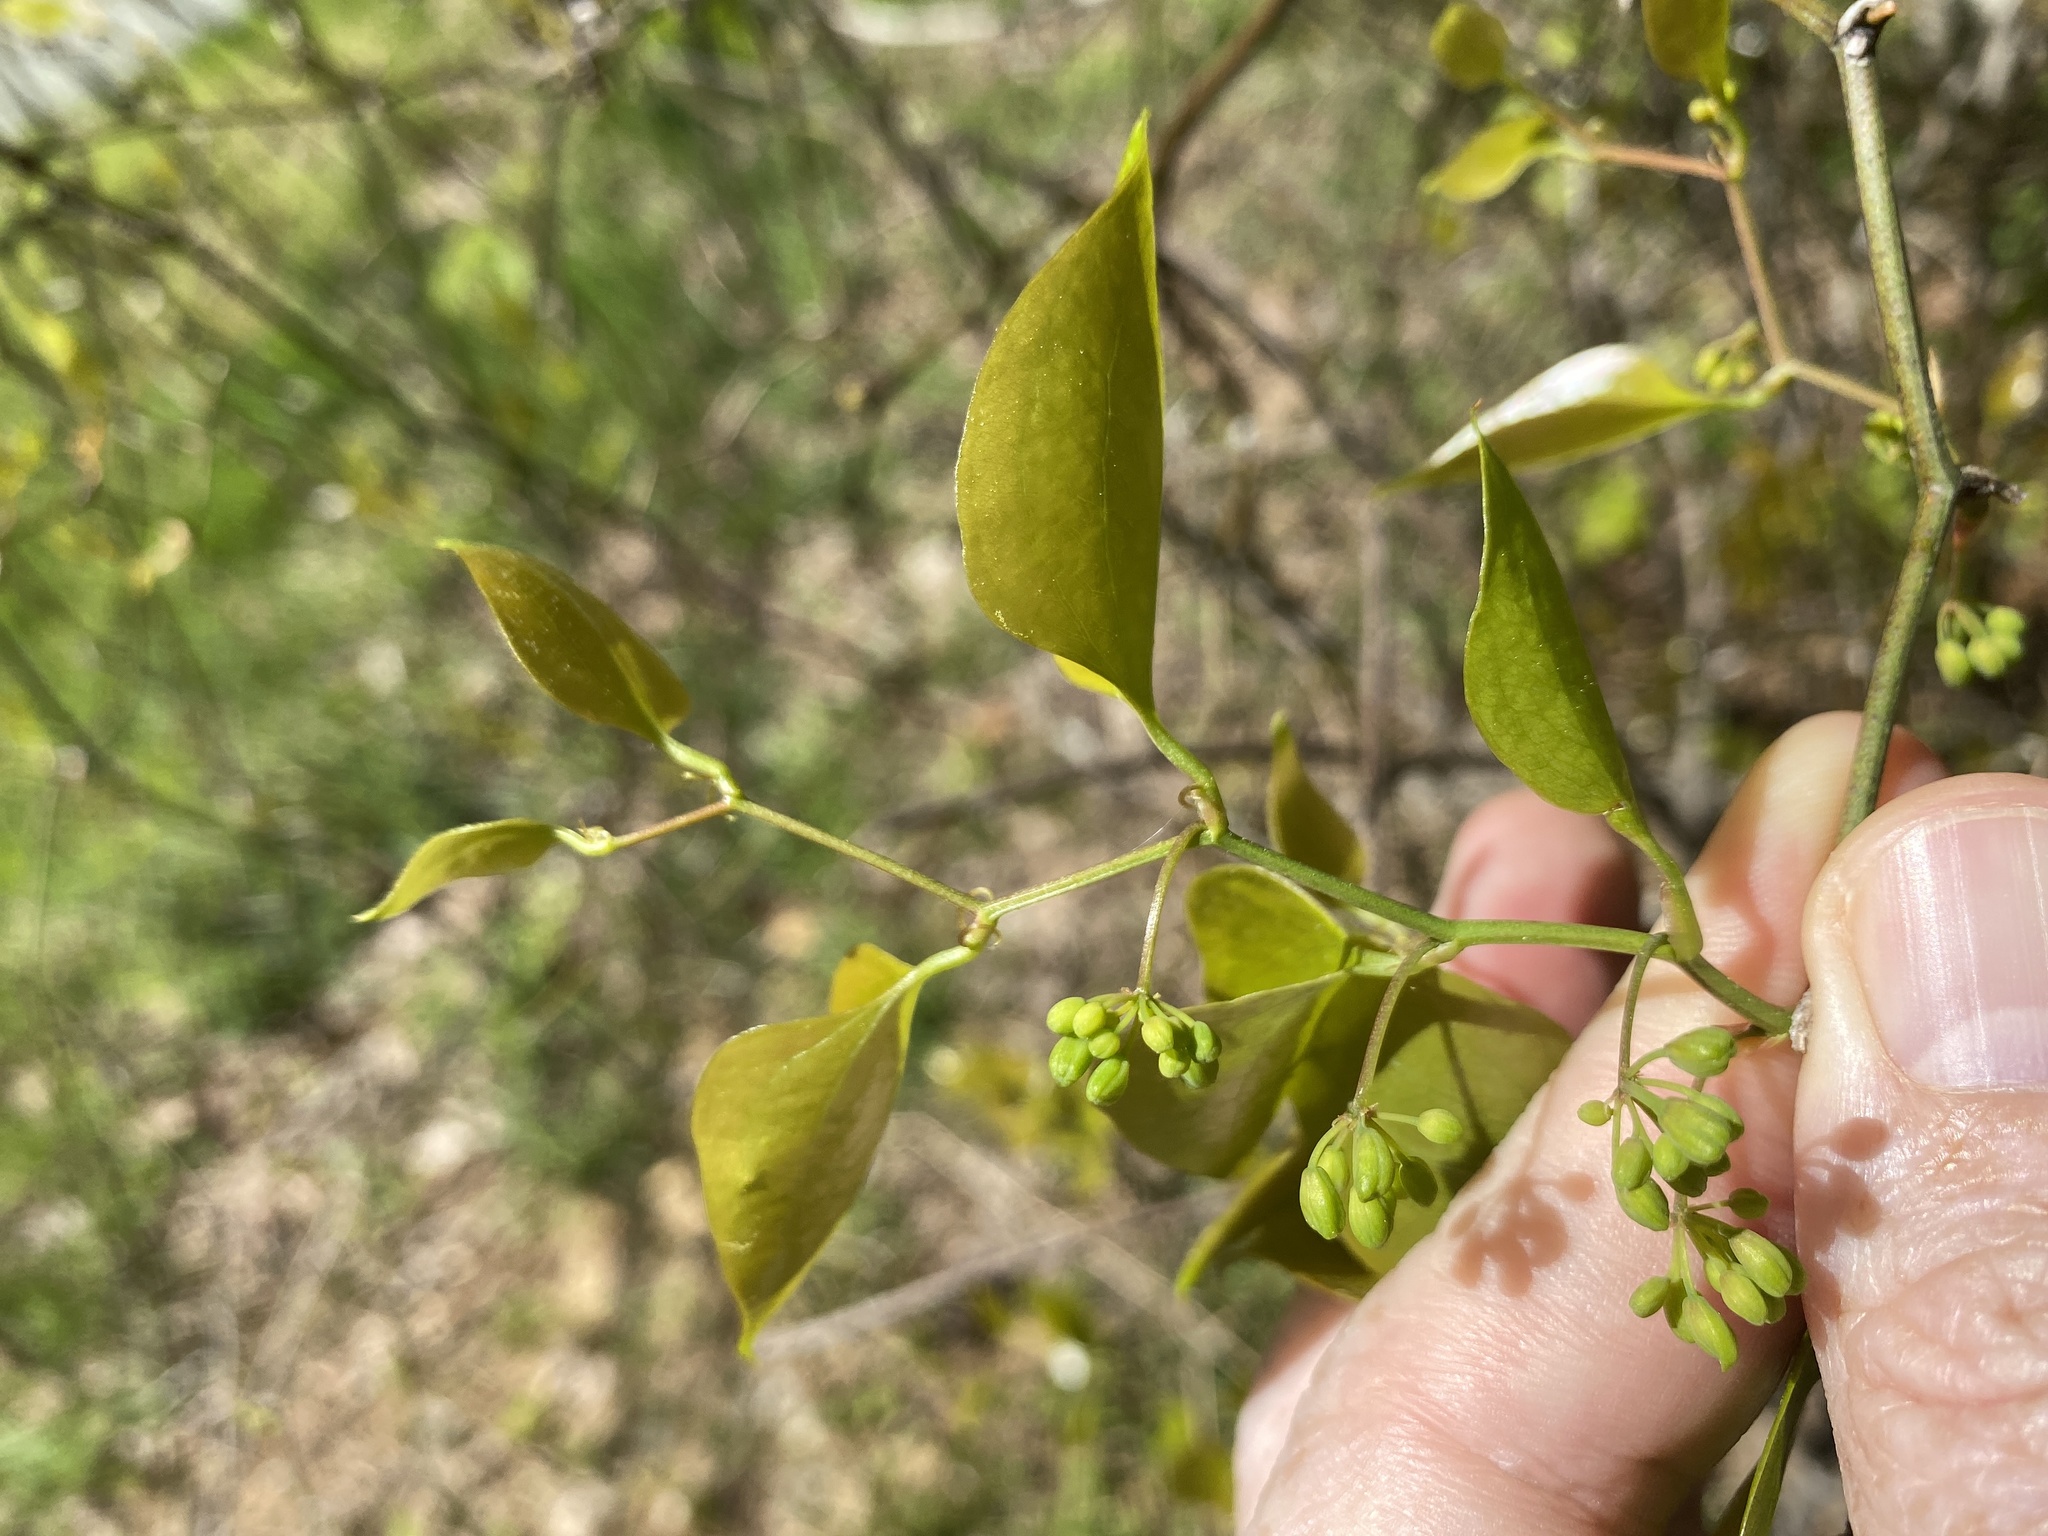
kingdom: Plantae
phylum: Tracheophyta
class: Liliopsida
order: Liliales
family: Smilacaceae
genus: Smilax
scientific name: Smilax rotundifolia
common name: Bullbriar
